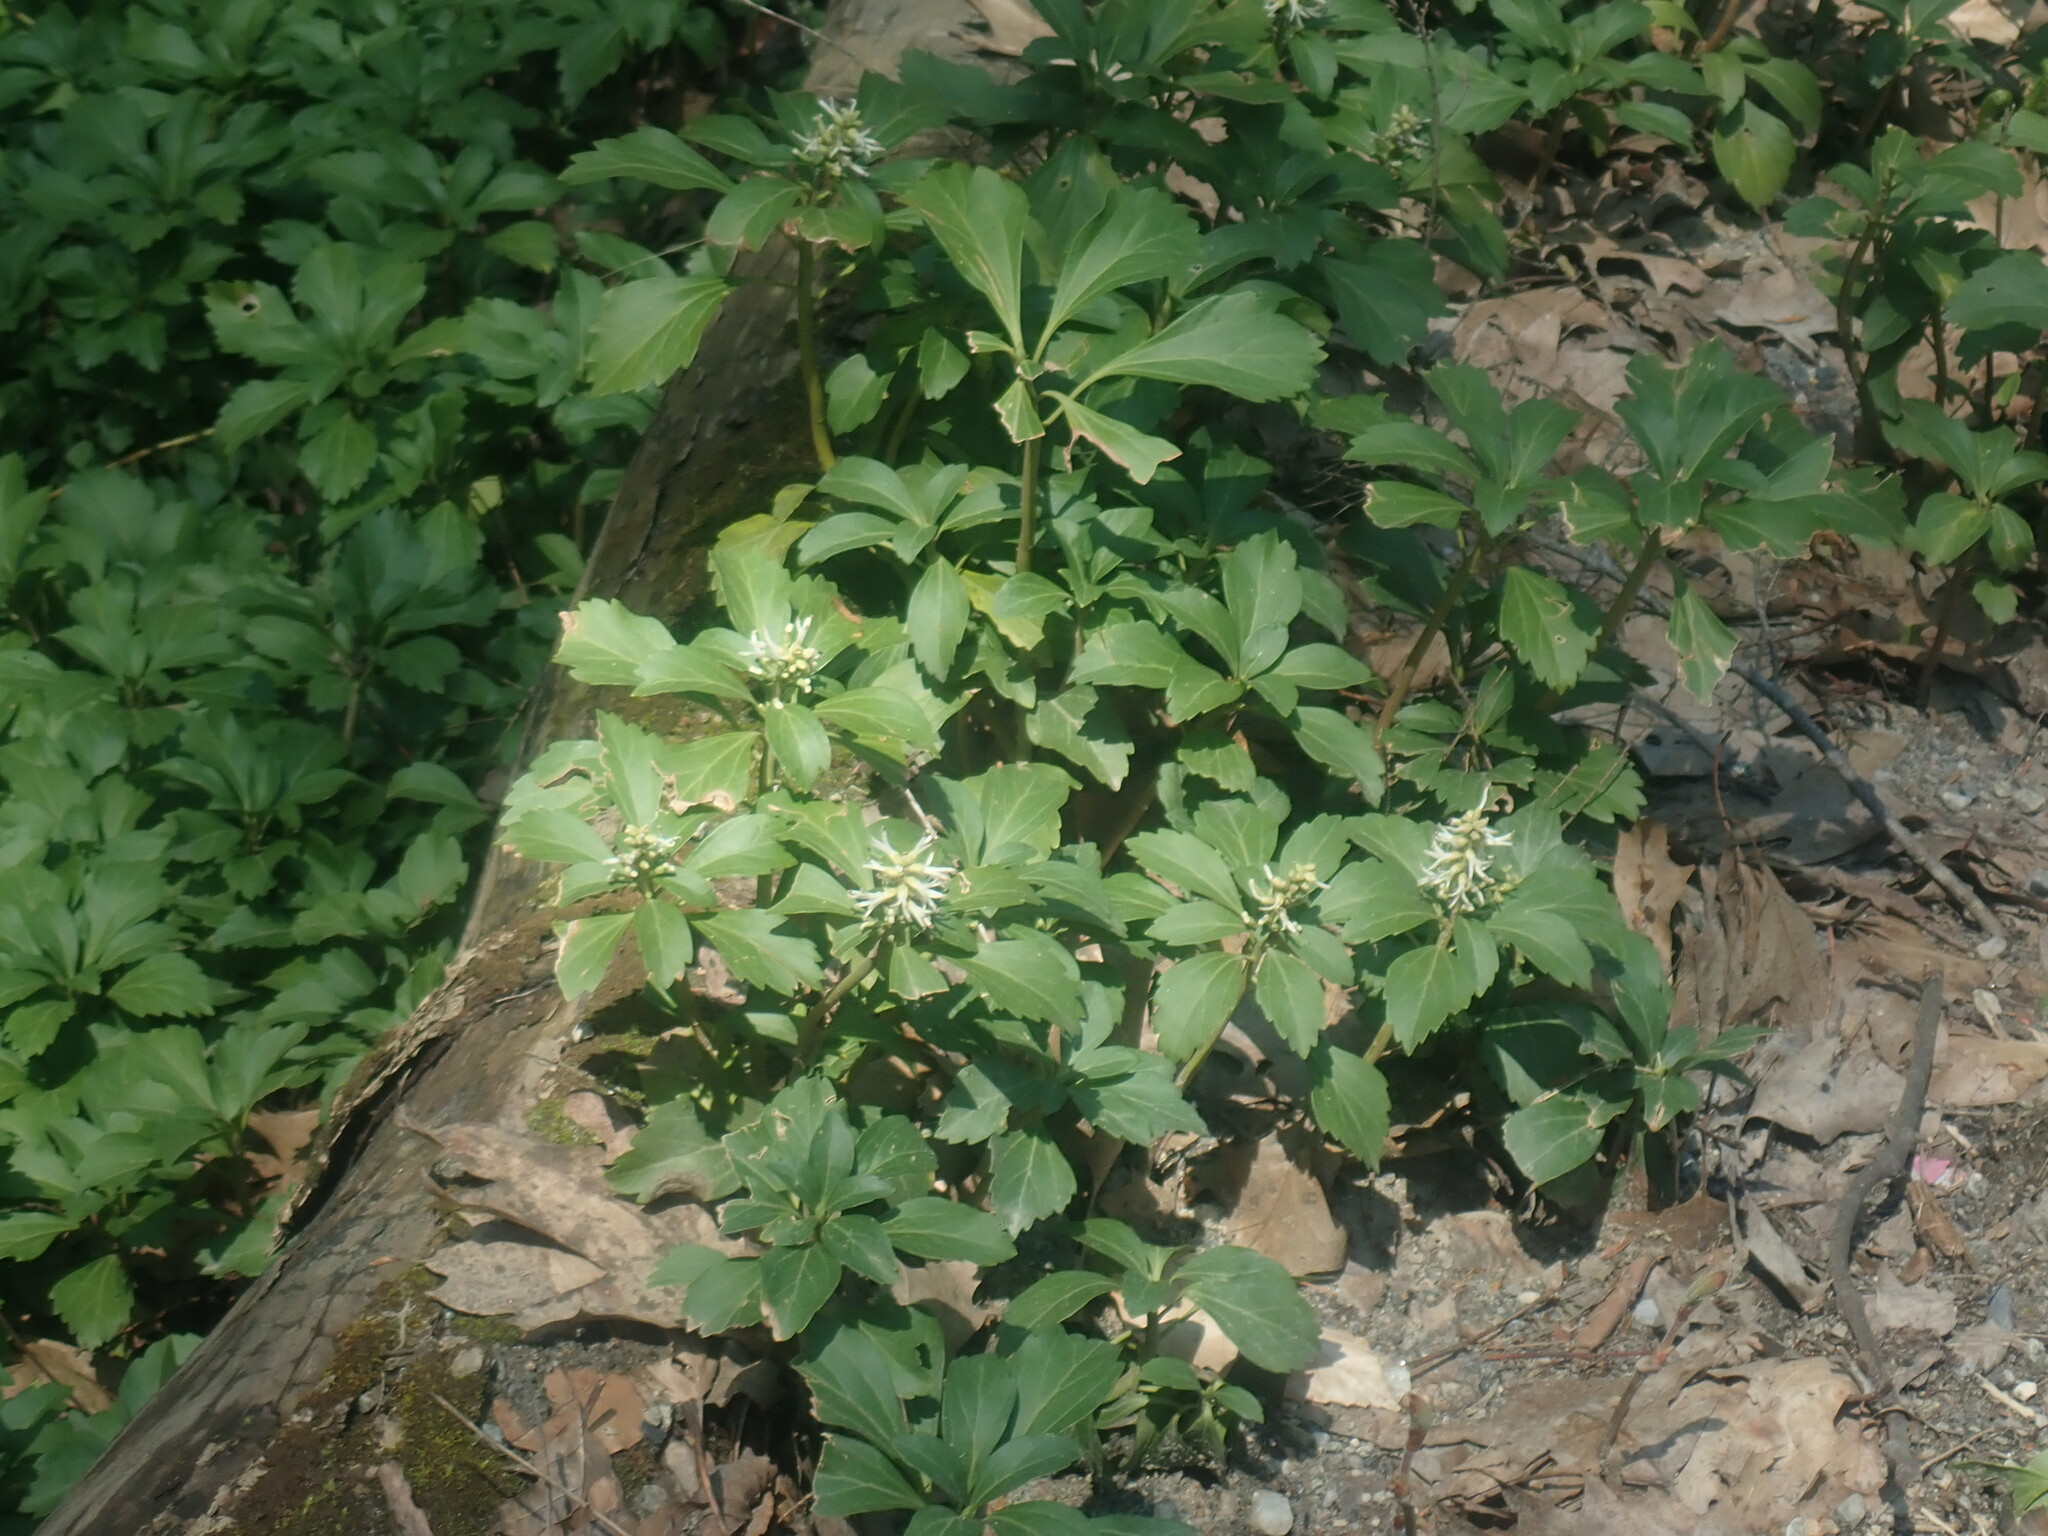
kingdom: Plantae
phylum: Tracheophyta
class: Magnoliopsida
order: Buxales
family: Buxaceae
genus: Pachysandra
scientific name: Pachysandra terminalis
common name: Japanese pachysandra
